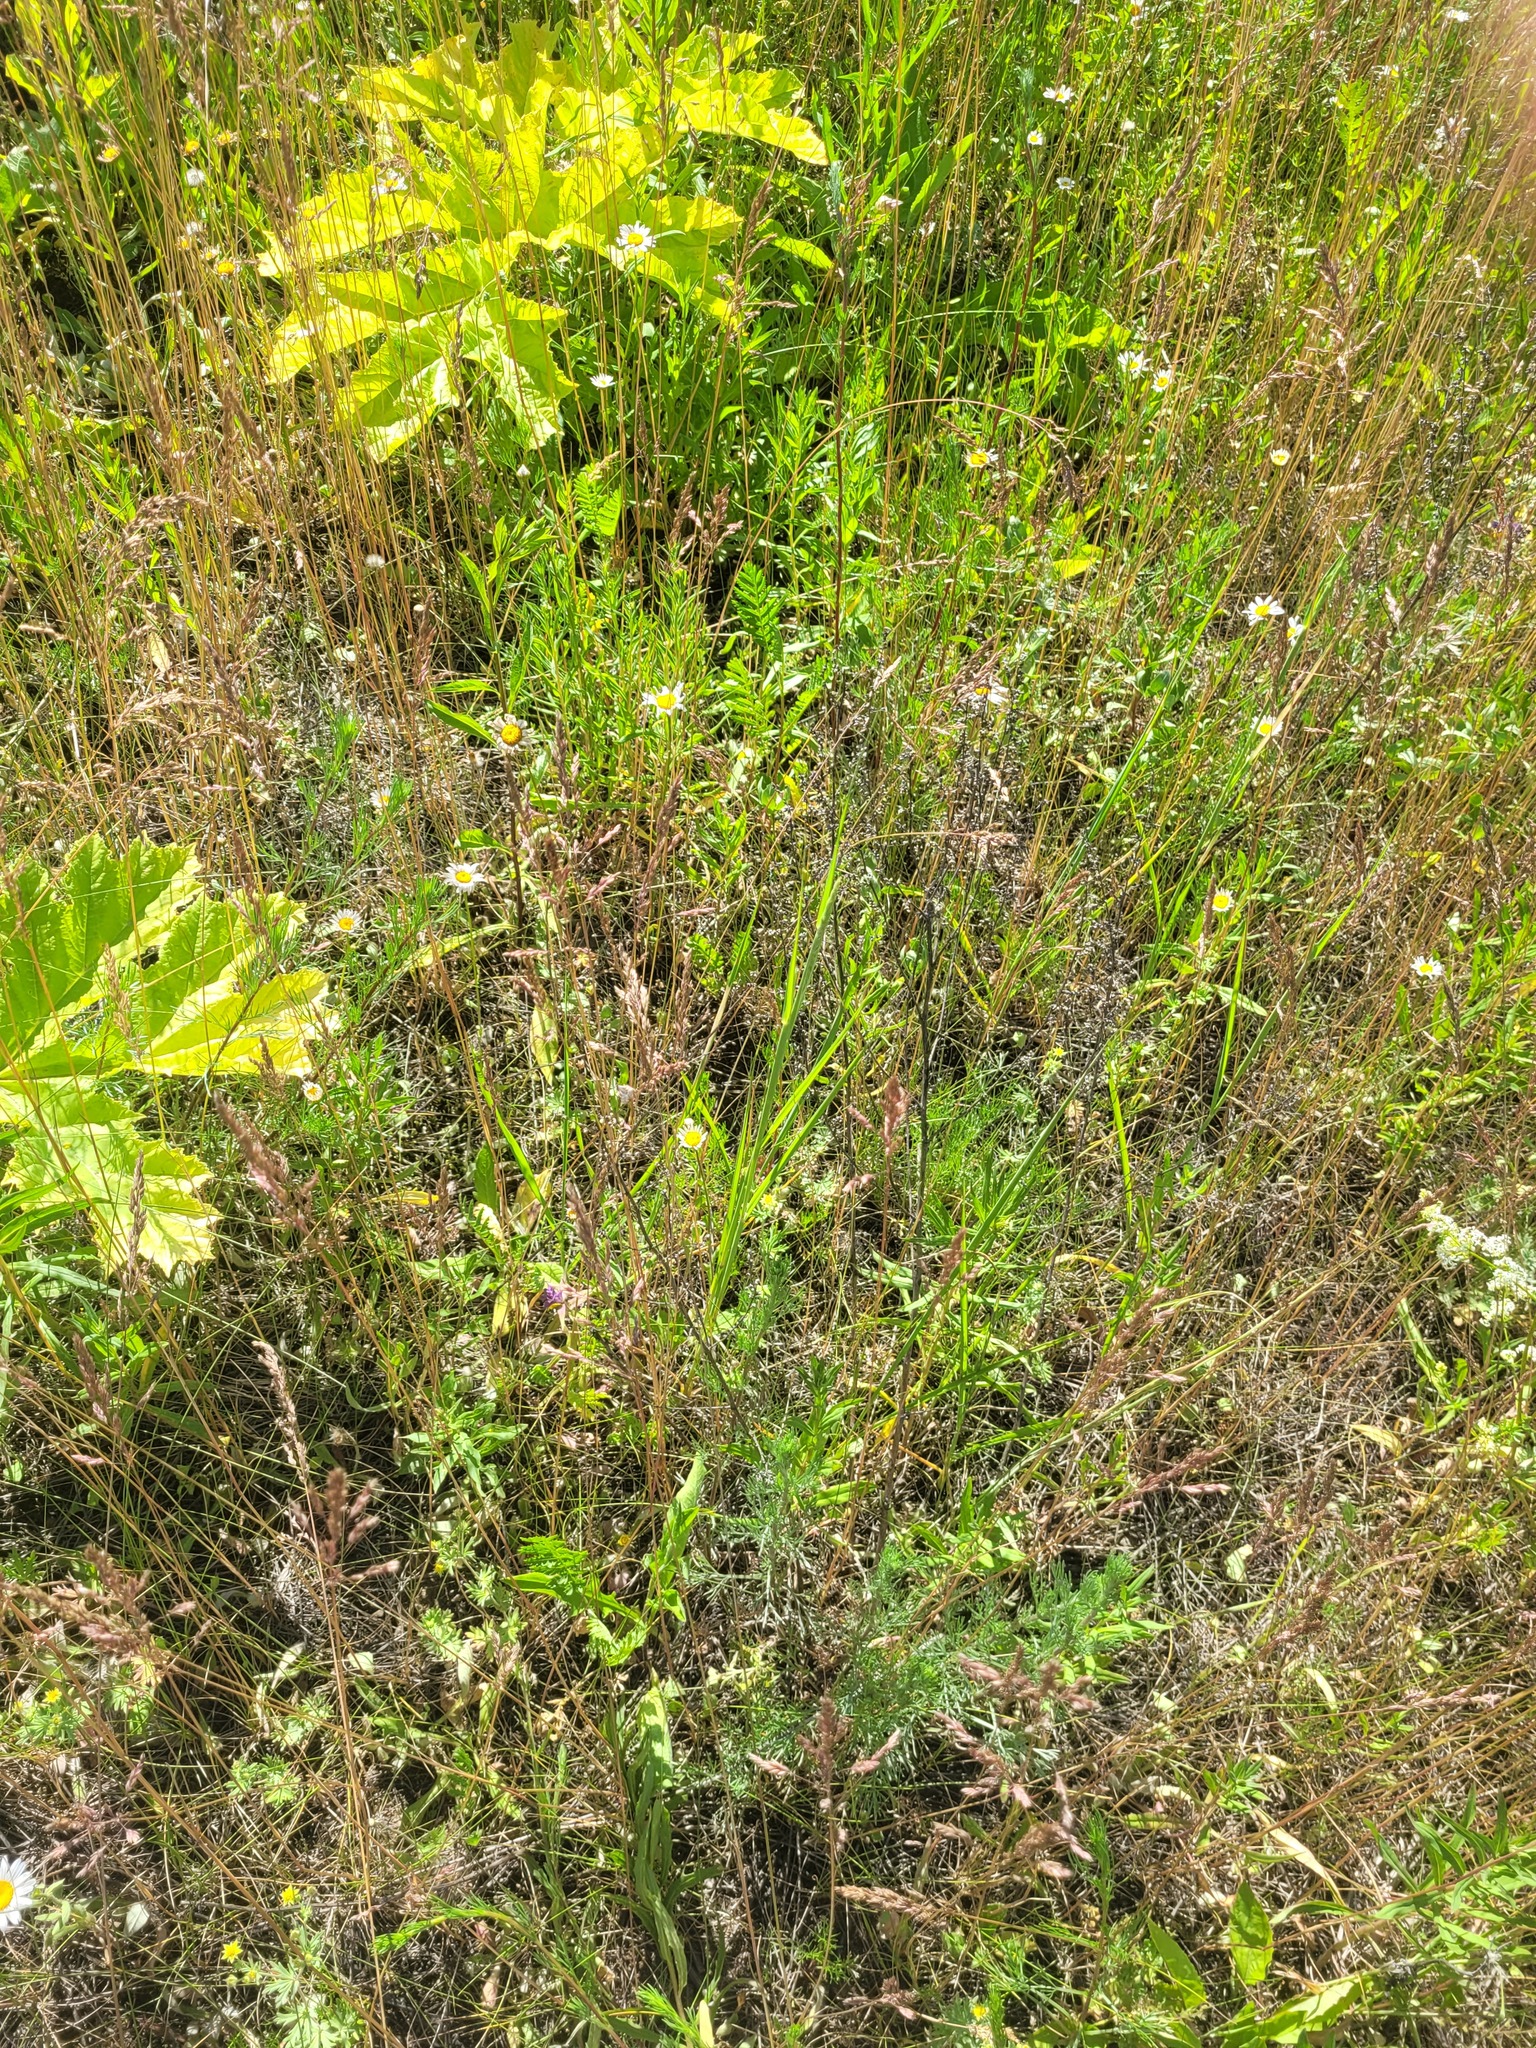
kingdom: Plantae
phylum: Tracheophyta
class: Liliopsida
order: Poales
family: Poaceae
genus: Poa
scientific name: Poa angustifolia
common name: Narrow-leaved meadow-grass
